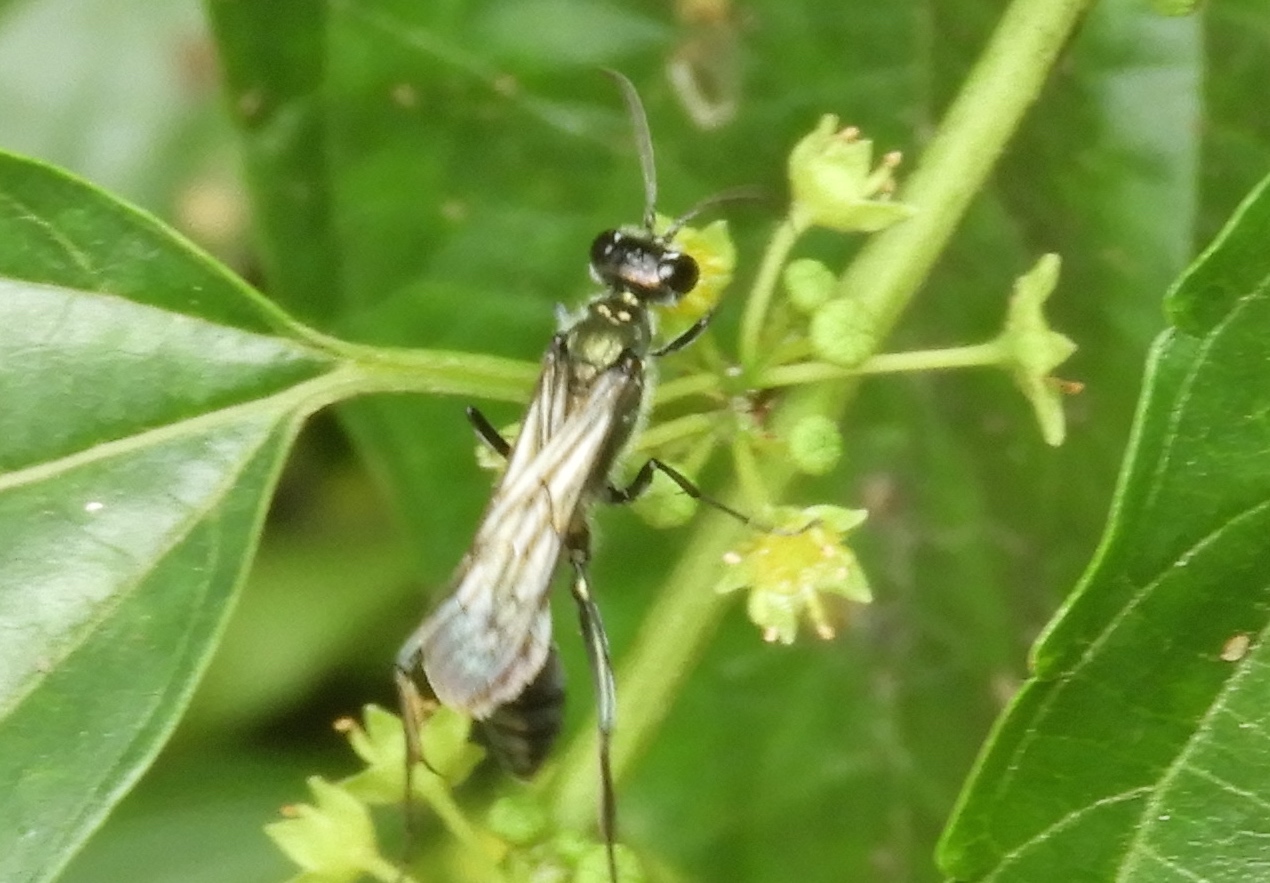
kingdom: Animalia
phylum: Arthropoda
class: Insecta
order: Hymenoptera
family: Sphecidae
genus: Chalybion
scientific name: Chalybion
